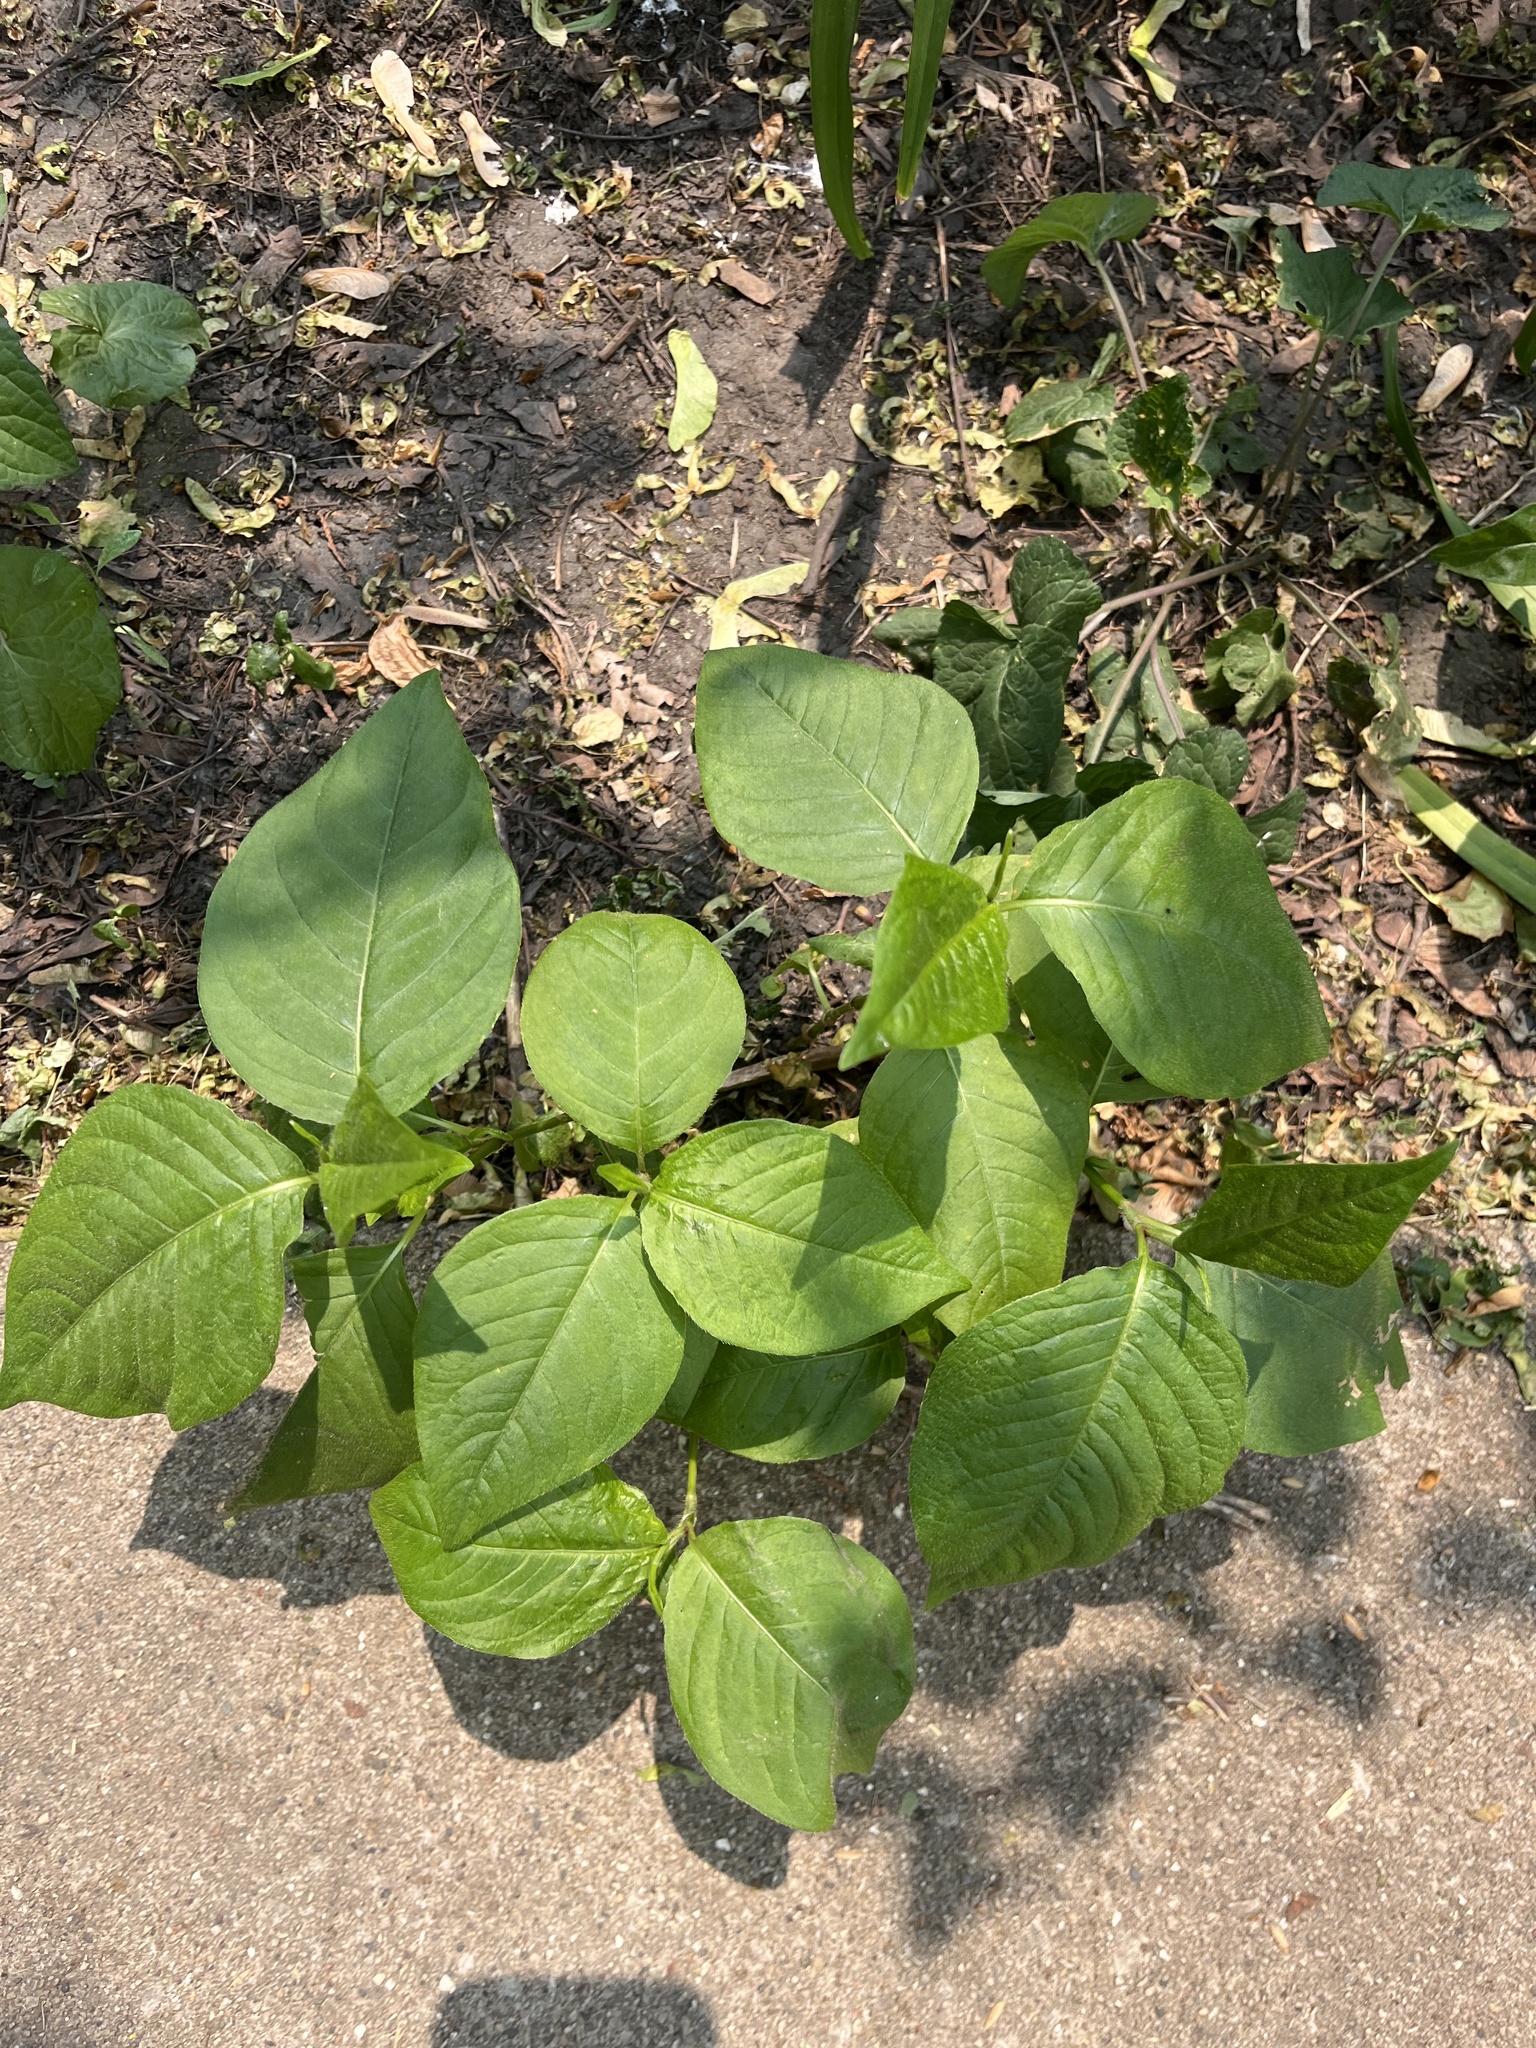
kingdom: Plantae
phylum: Tracheophyta
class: Magnoliopsida
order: Caryophyllales
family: Polygonaceae
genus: Persicaria
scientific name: Persicaria virginiana
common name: Jumpseed
